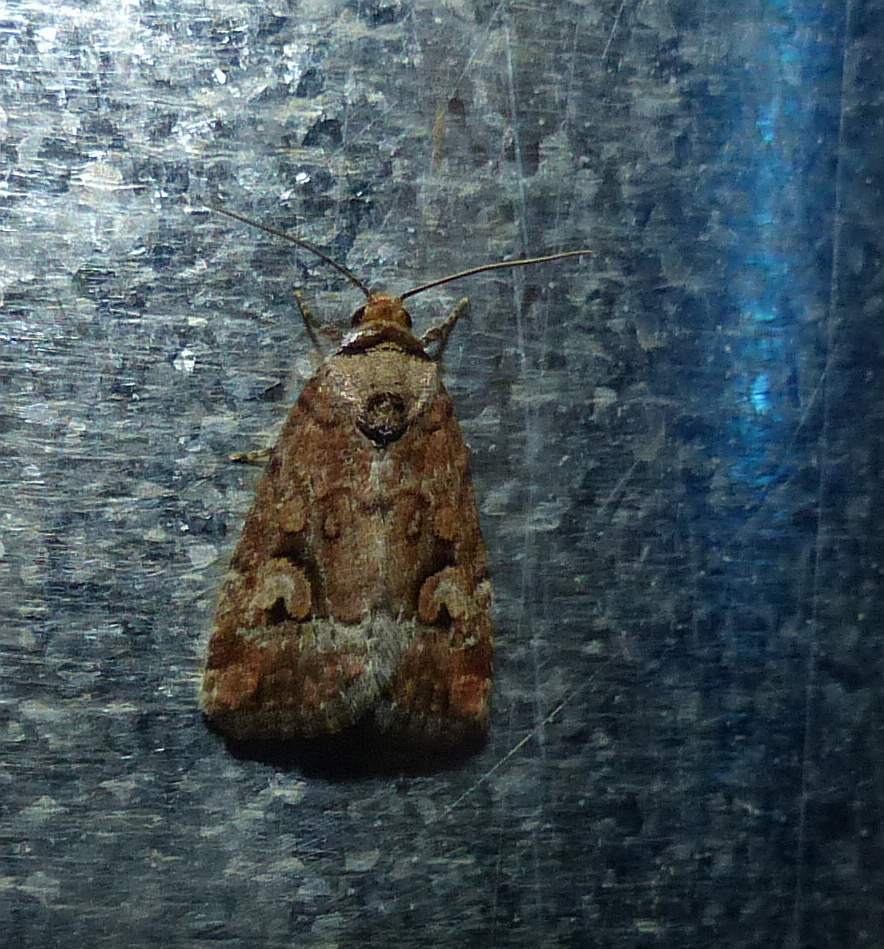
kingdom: Animalia
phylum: Arthropoda
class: Insecta
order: Lepidoptera
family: Noctuidae
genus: Elaphria
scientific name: Elaphria alapallida
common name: Pale-winged midget
